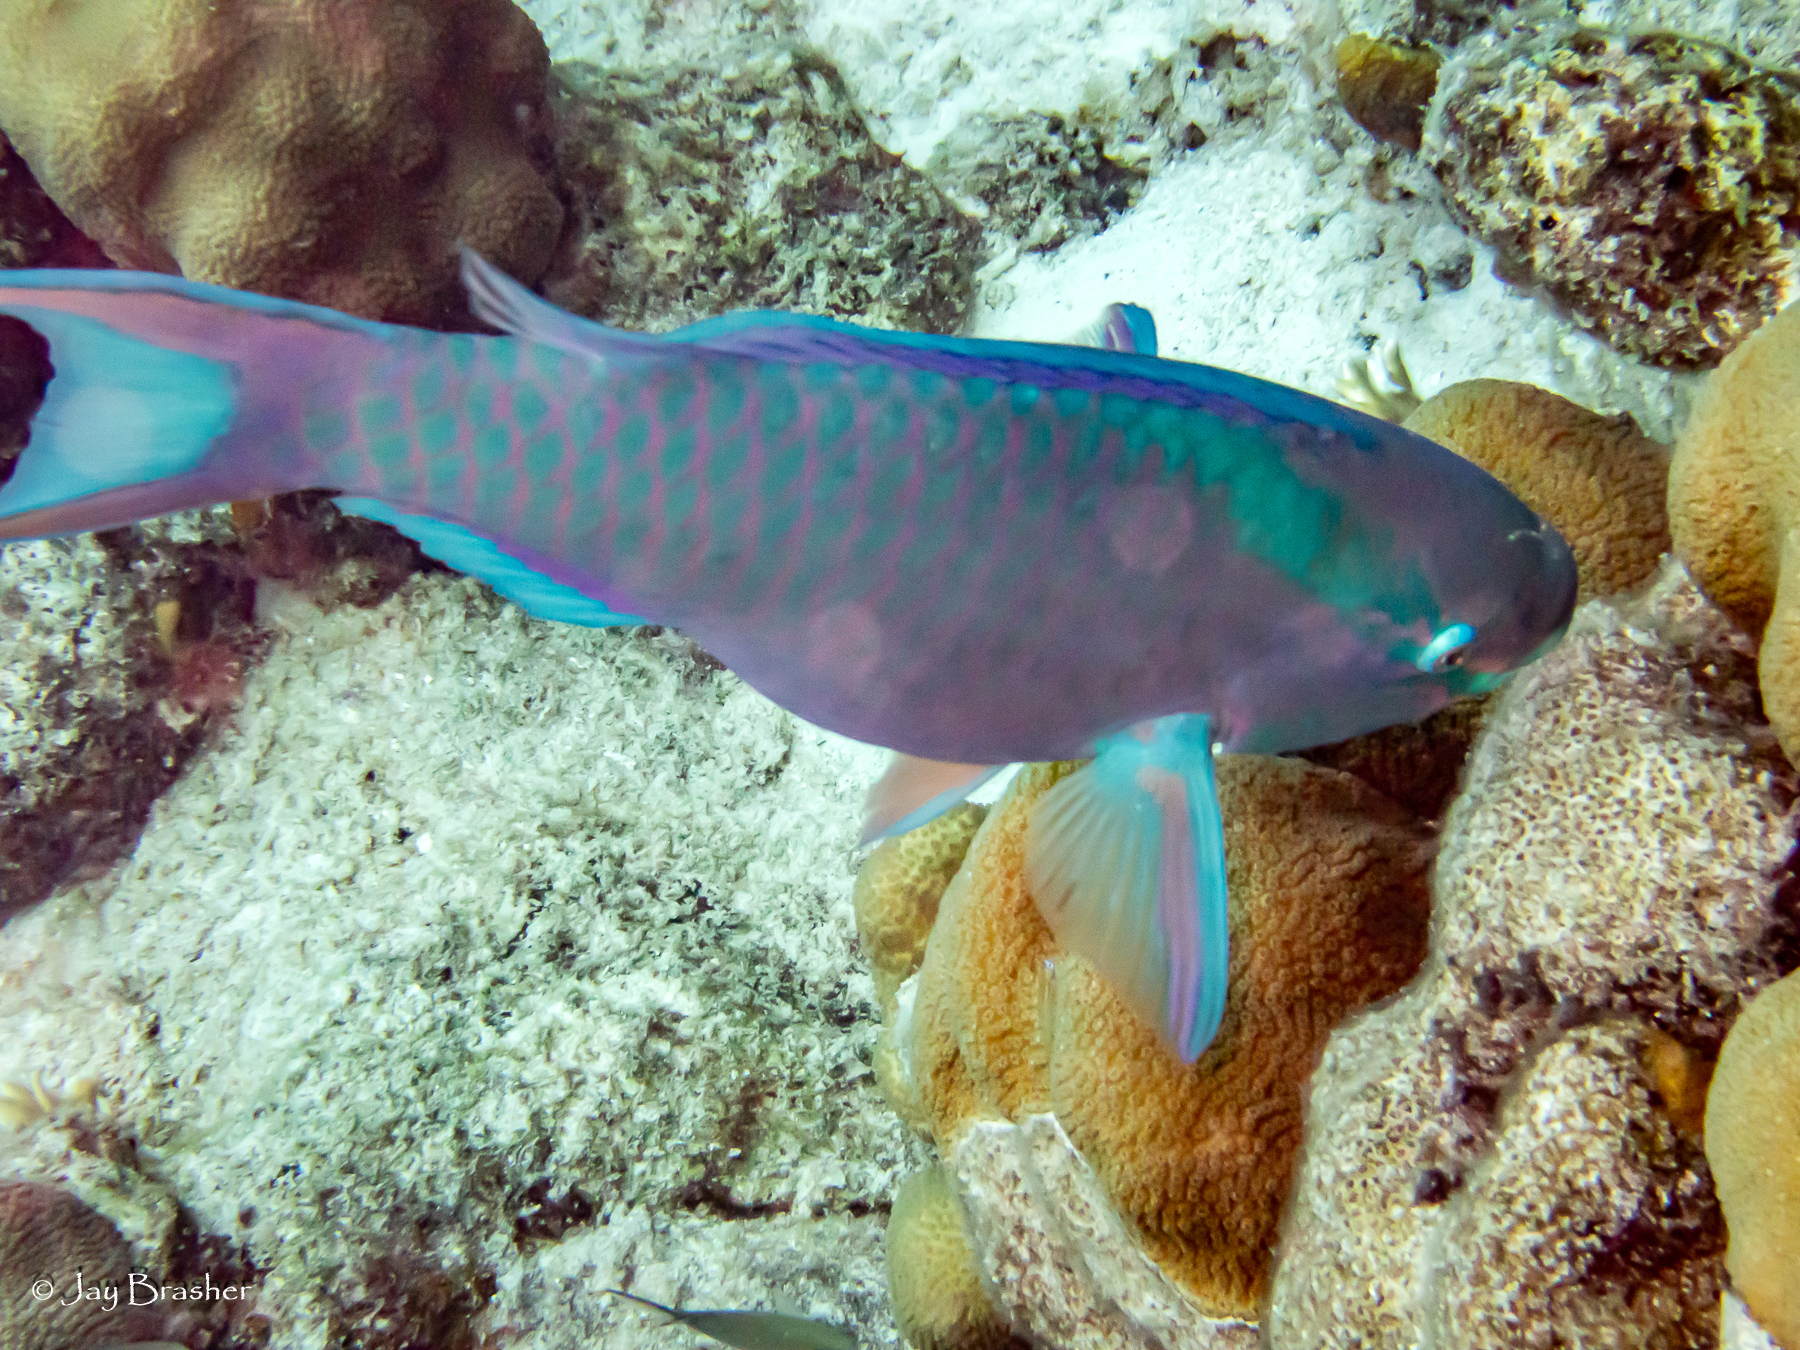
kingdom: Animalia
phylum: Chordata
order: Perciformes
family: Scaridae
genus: Scarus
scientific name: Scarus vetula
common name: Queen parrotfish
